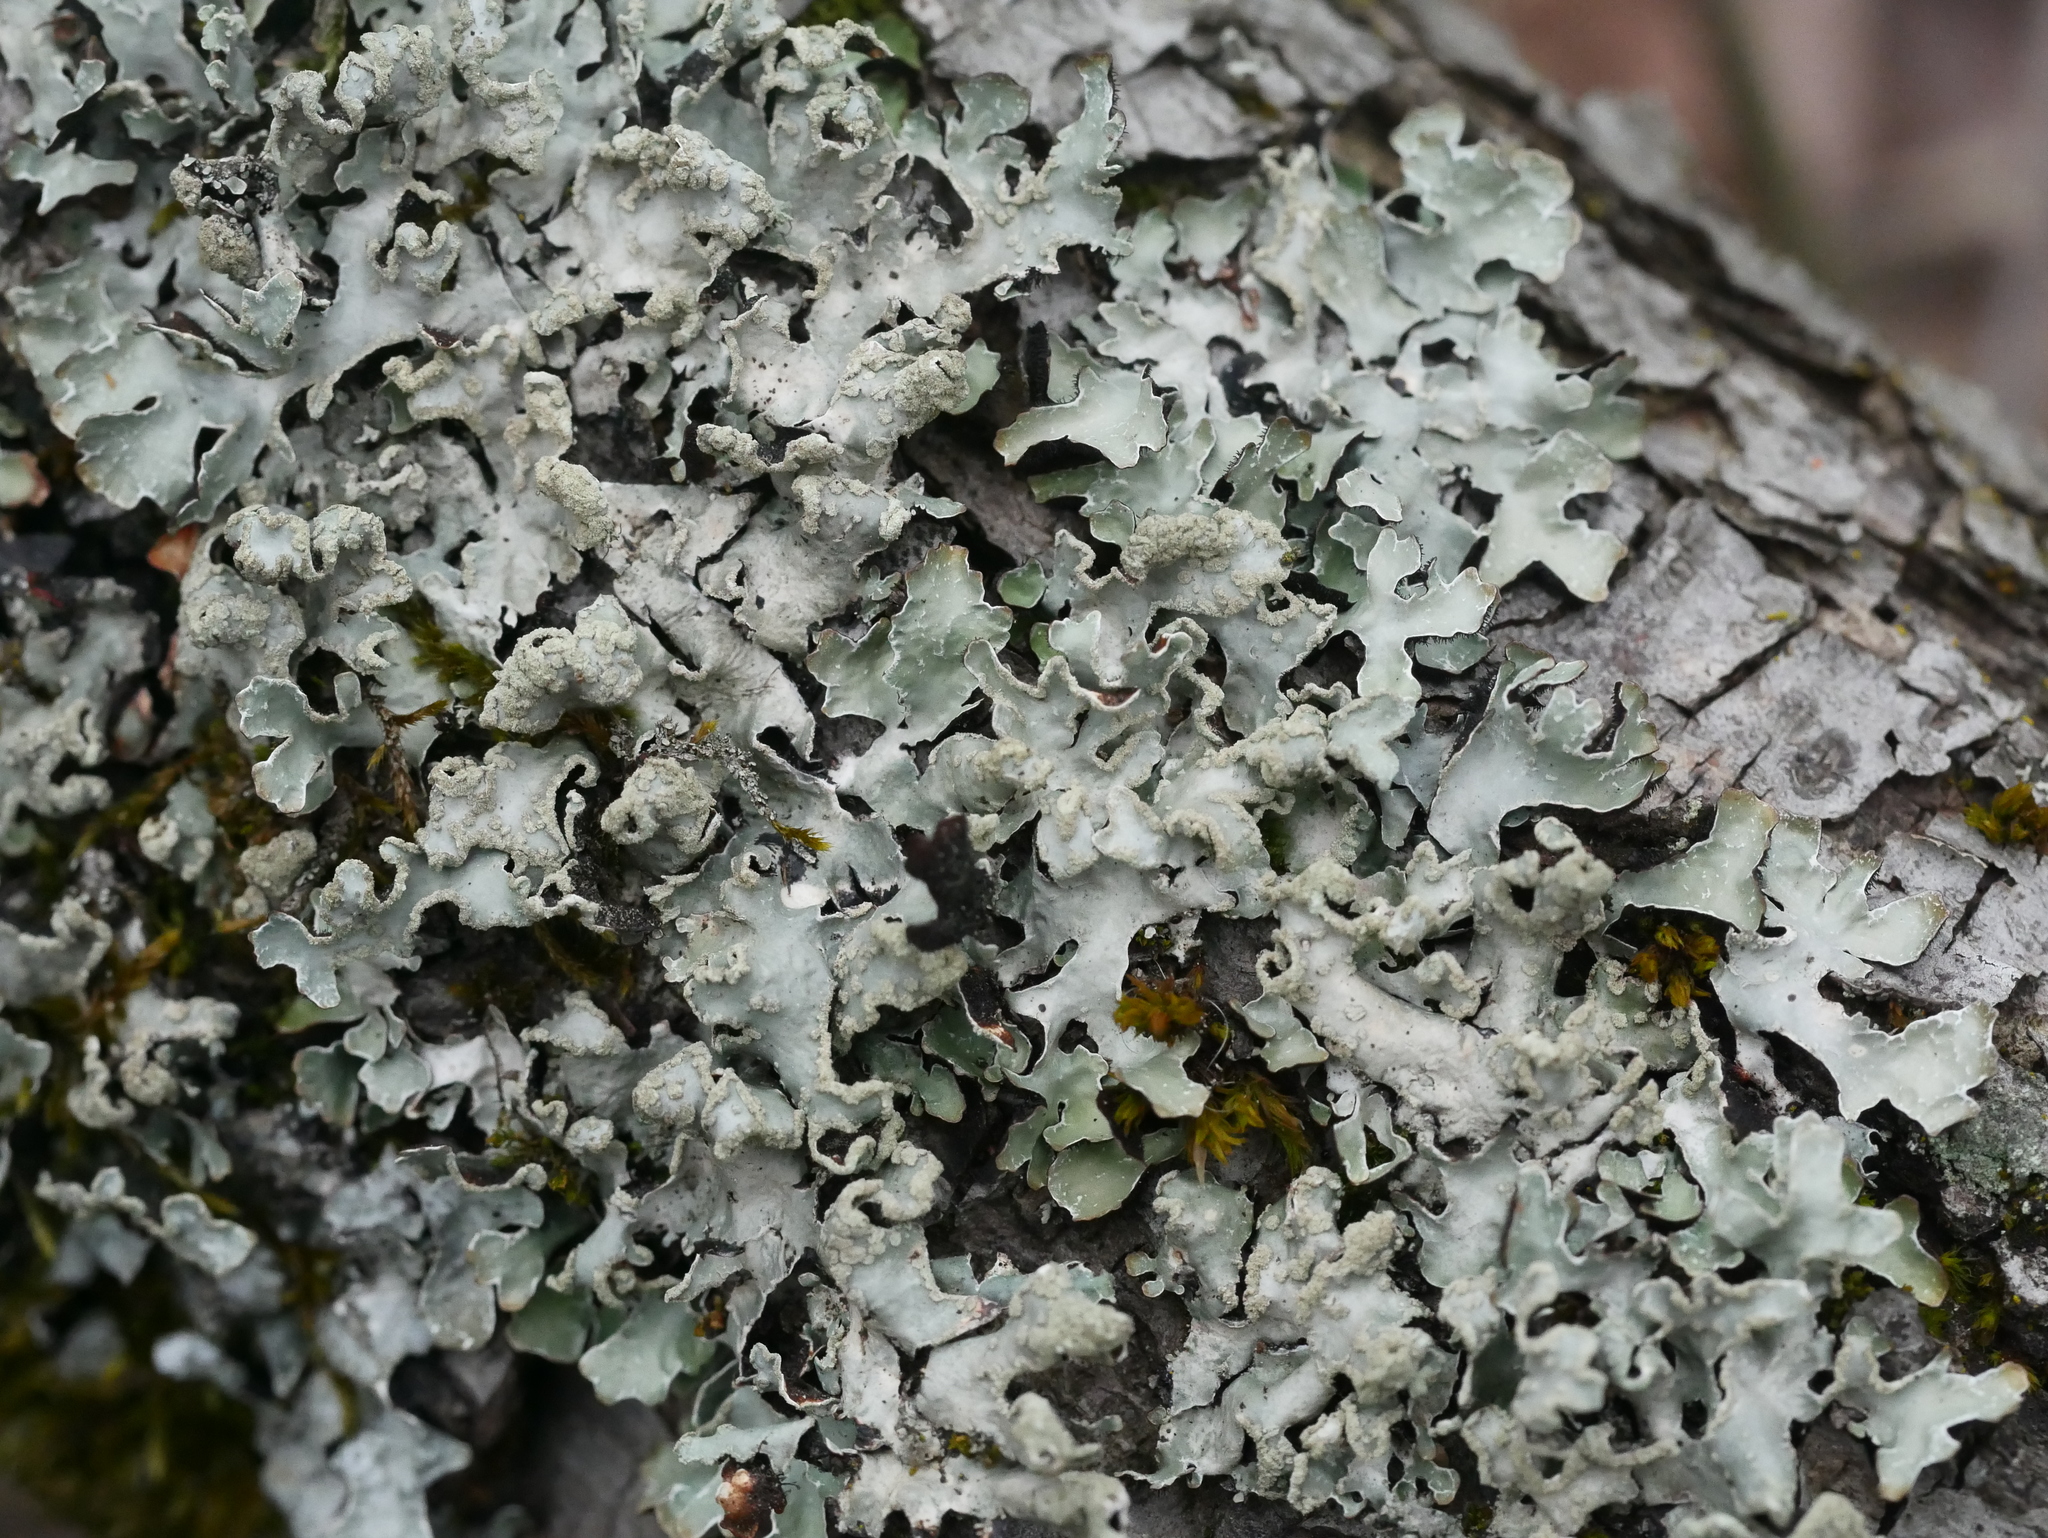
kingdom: Fungi
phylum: Ascomycota
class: Lecanoromycetes
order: Lecanorales
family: Parmeliaceae
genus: Parmelia
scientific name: Parmelia sulcata
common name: Netted shield lichen
